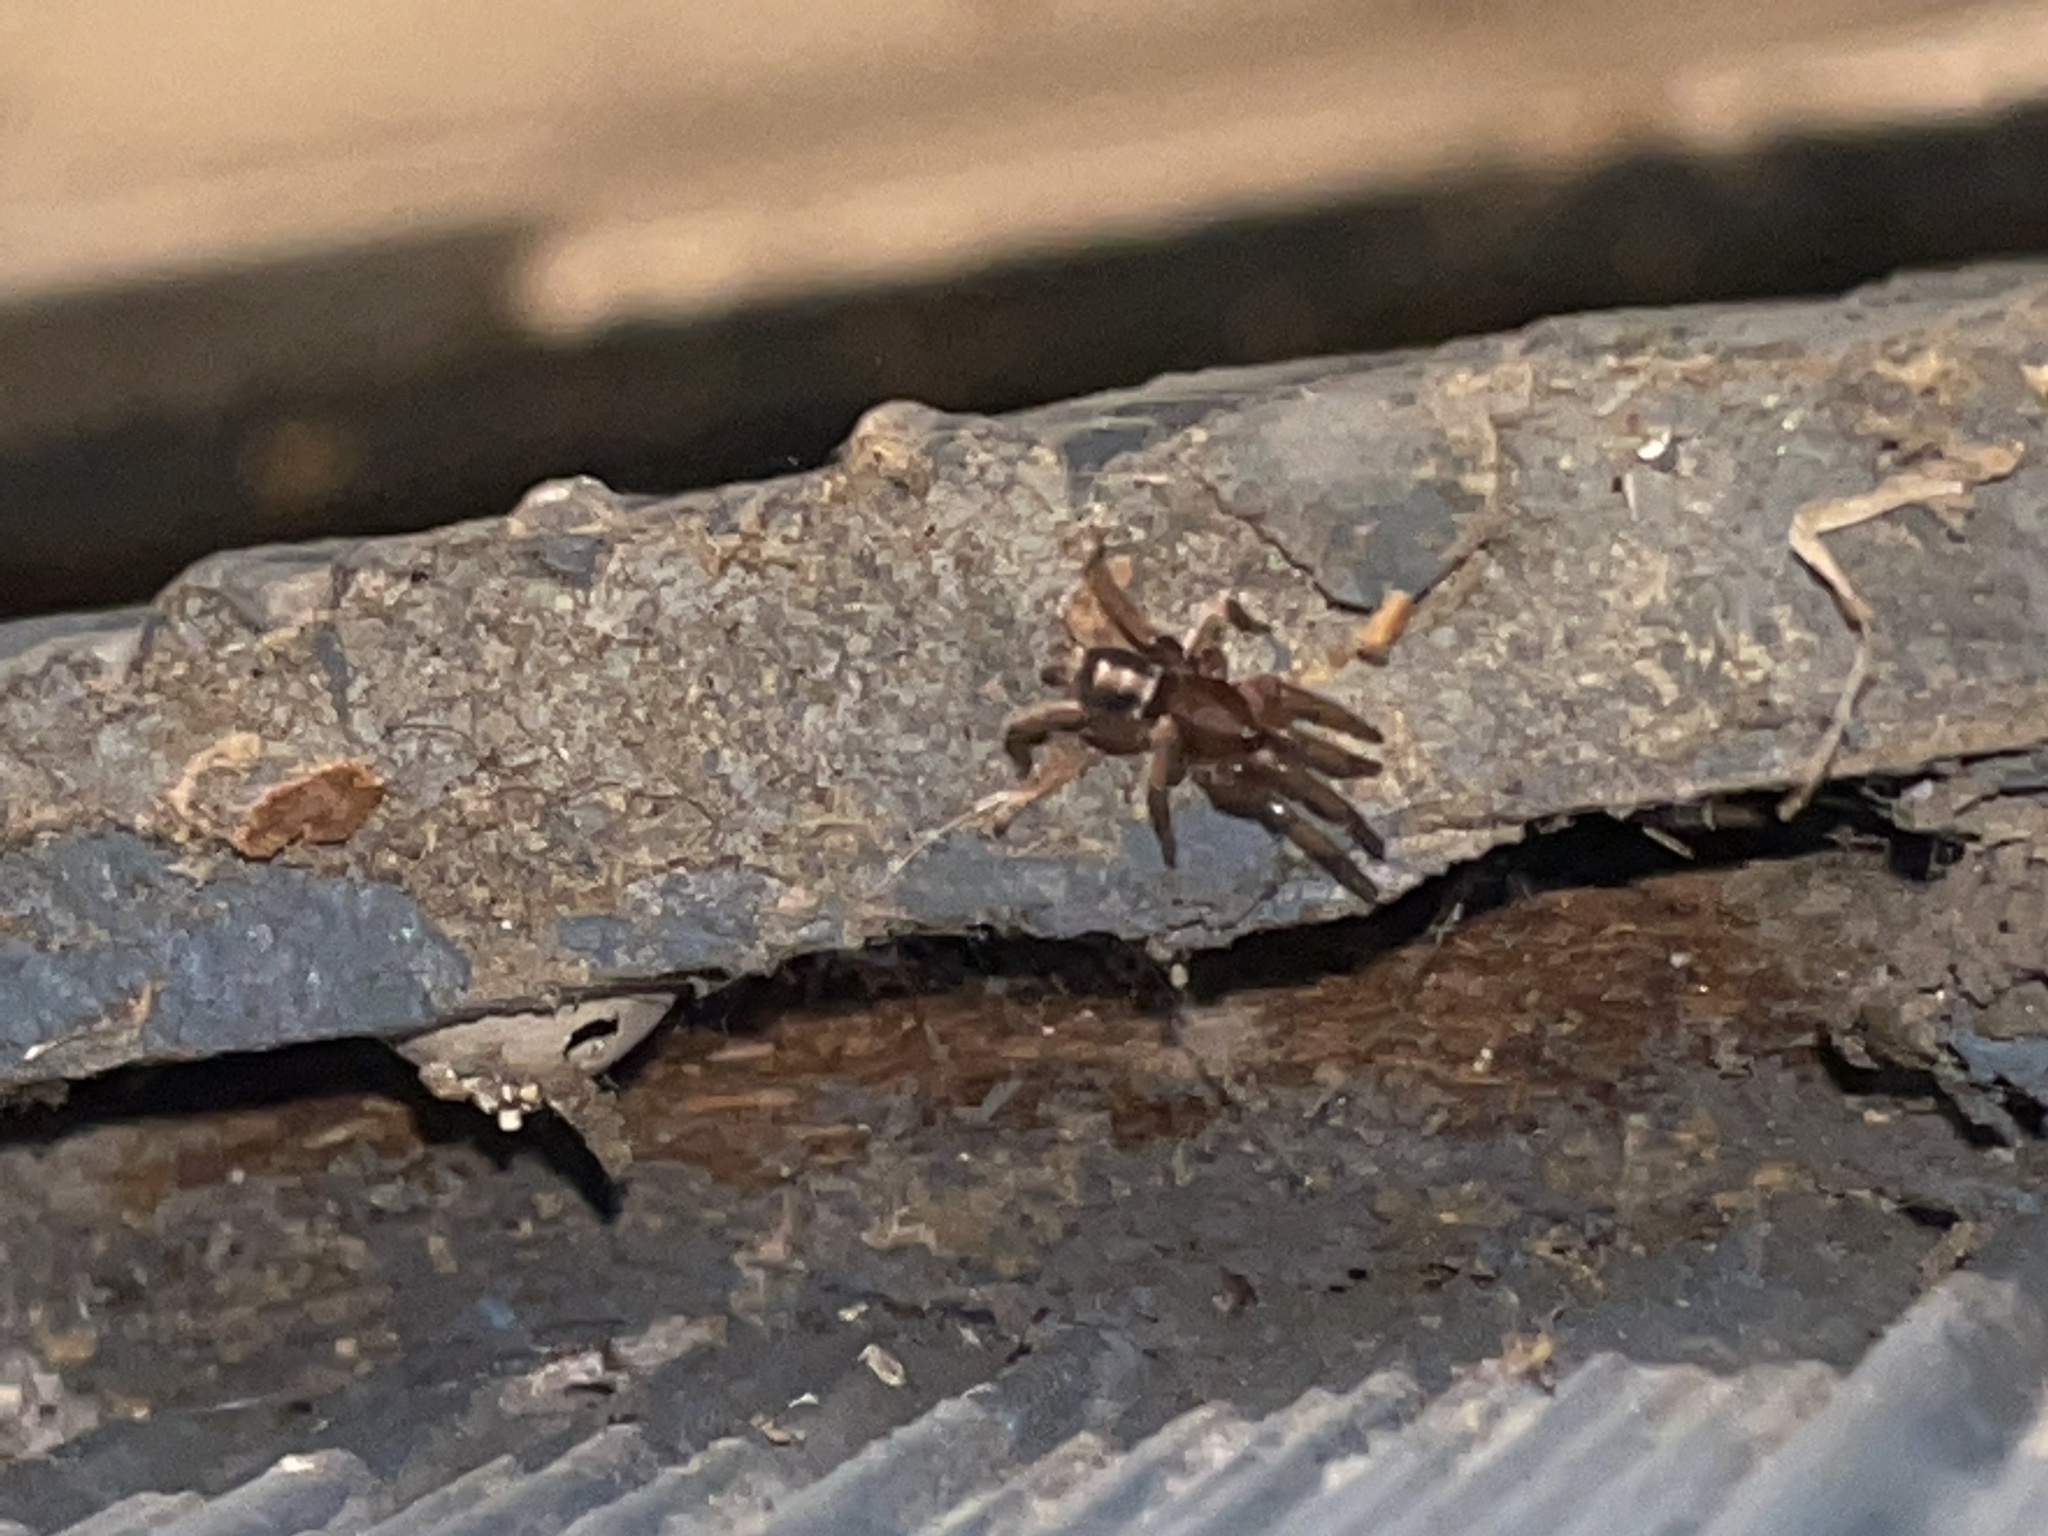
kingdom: Animalia
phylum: Arthropoda
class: Arachnida
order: Araneae
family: Gnaphosidae
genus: Herpyllus
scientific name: Herpyllus ecclesiasticus
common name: Eastern parson spider
